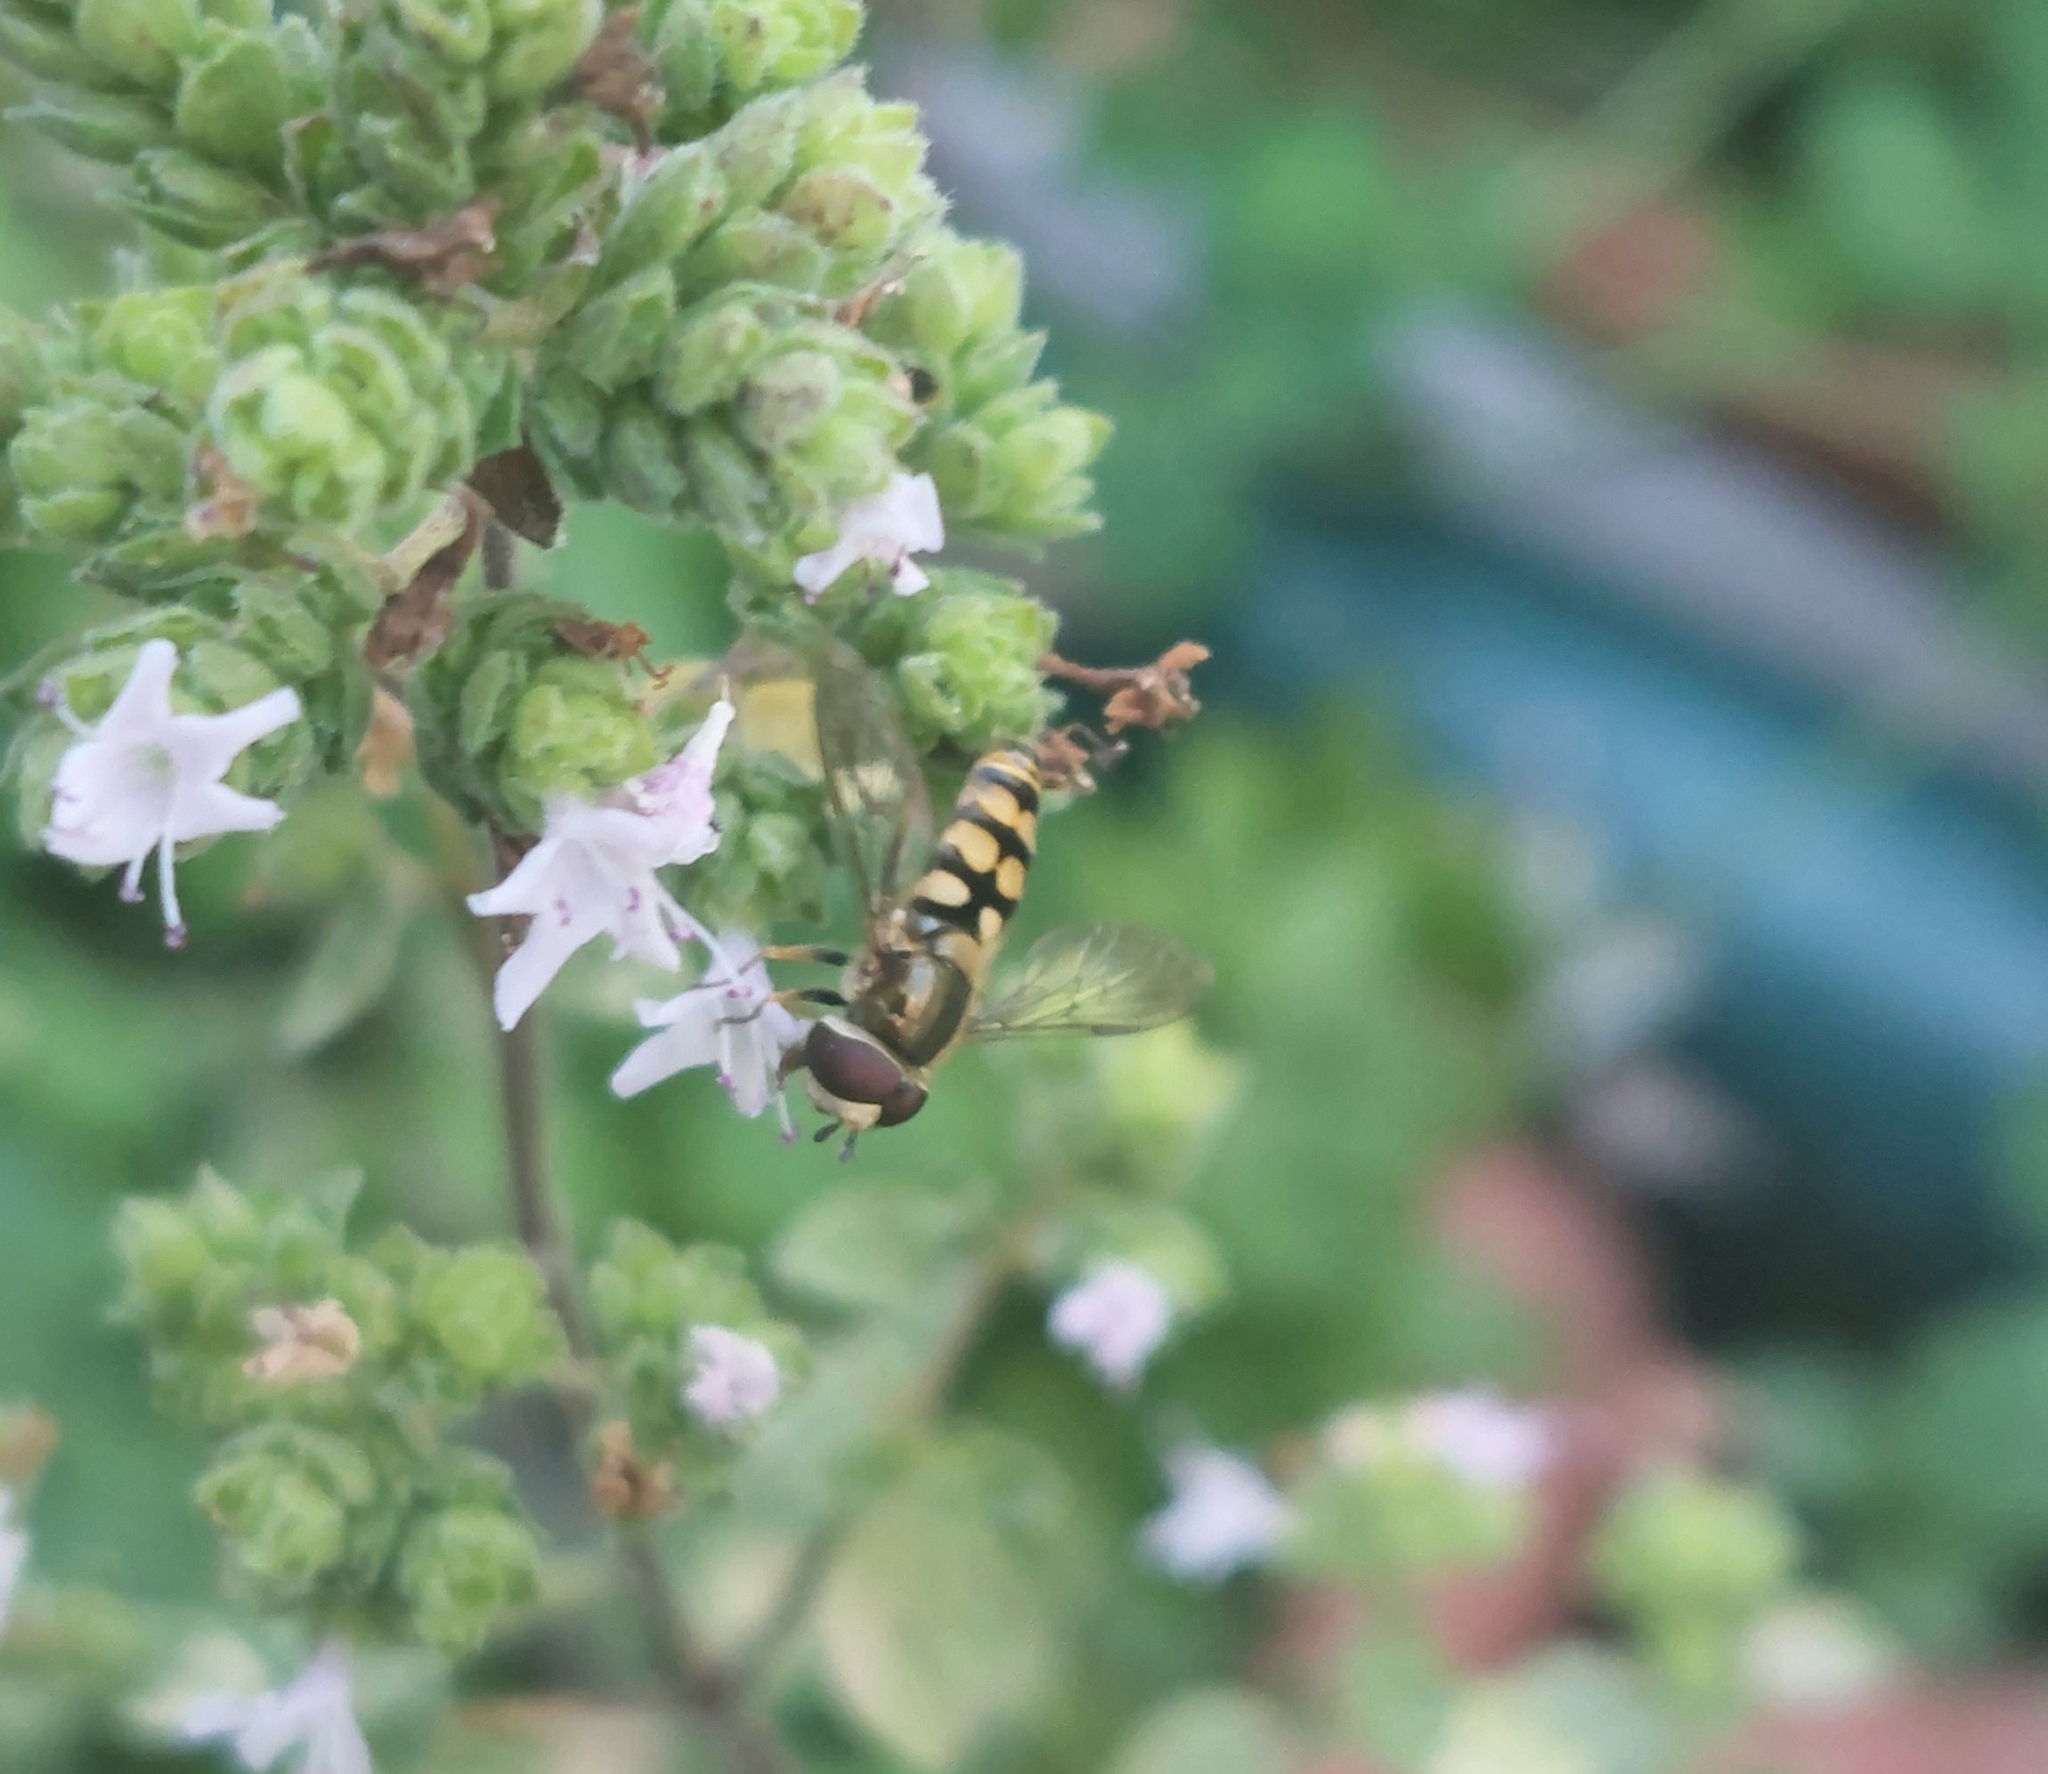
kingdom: Animalia
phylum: Arthropoda
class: Insecta
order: Diptera
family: Syrphidae
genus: Eupeodes
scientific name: Eupeodes corollae
